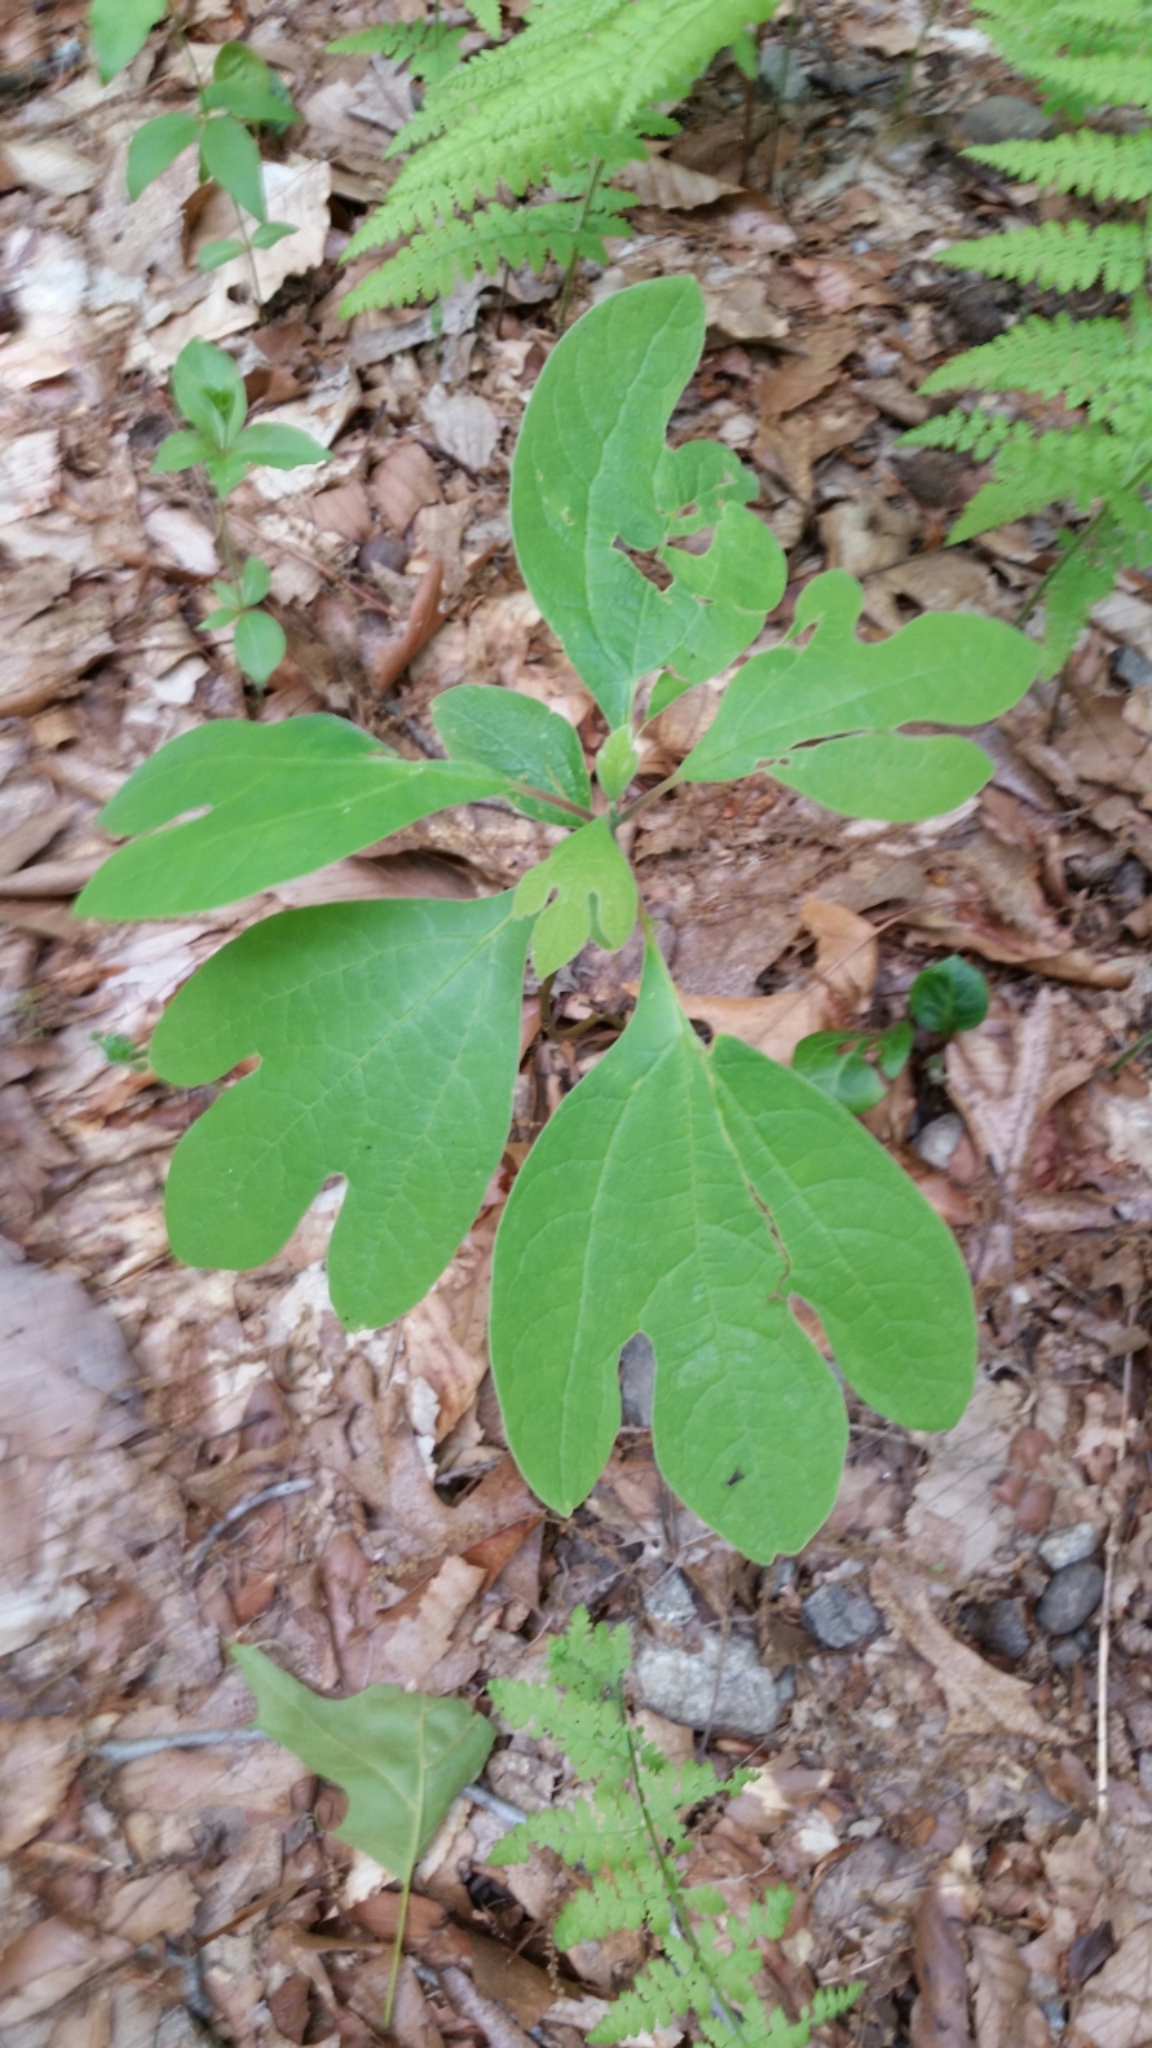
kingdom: Plantae
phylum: Tracheophyta
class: Magnoliopsida
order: Laurales
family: Lauraceae
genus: Sassafras
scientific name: Sassafras albidum
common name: Sassafras
